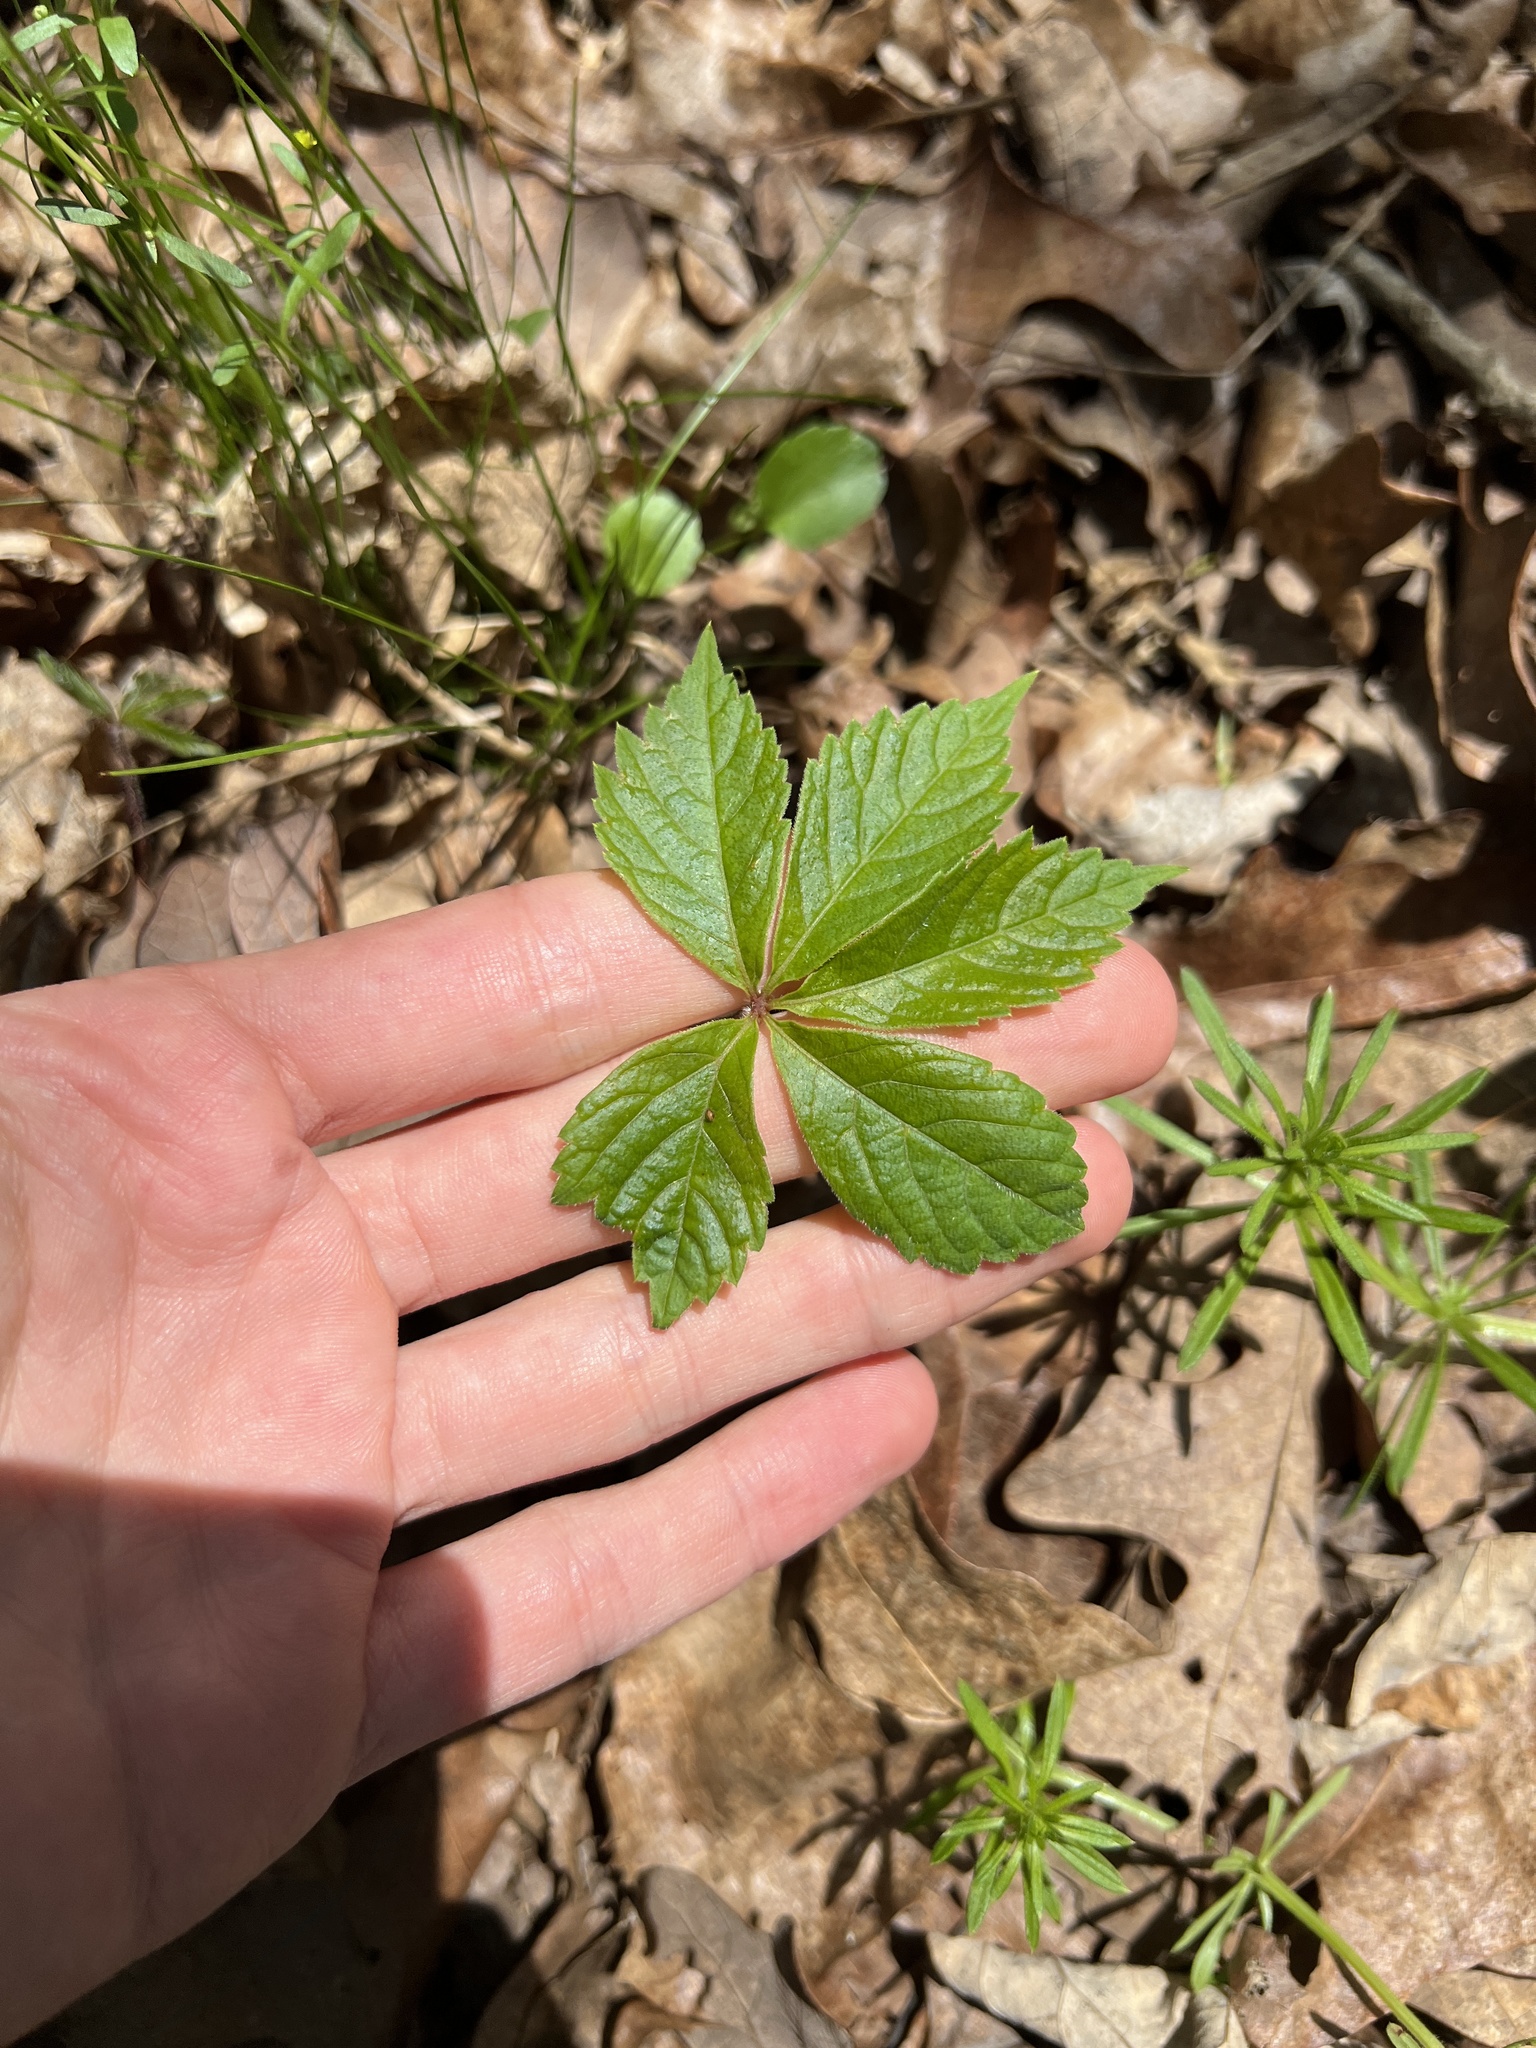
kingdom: Plantae
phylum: Tracheophyta
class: Magnoliopsida
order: Vitales
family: Vitaceae
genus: Parthenocissus
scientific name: Parthenocissus quinquefolia
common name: Virginia-creeper
